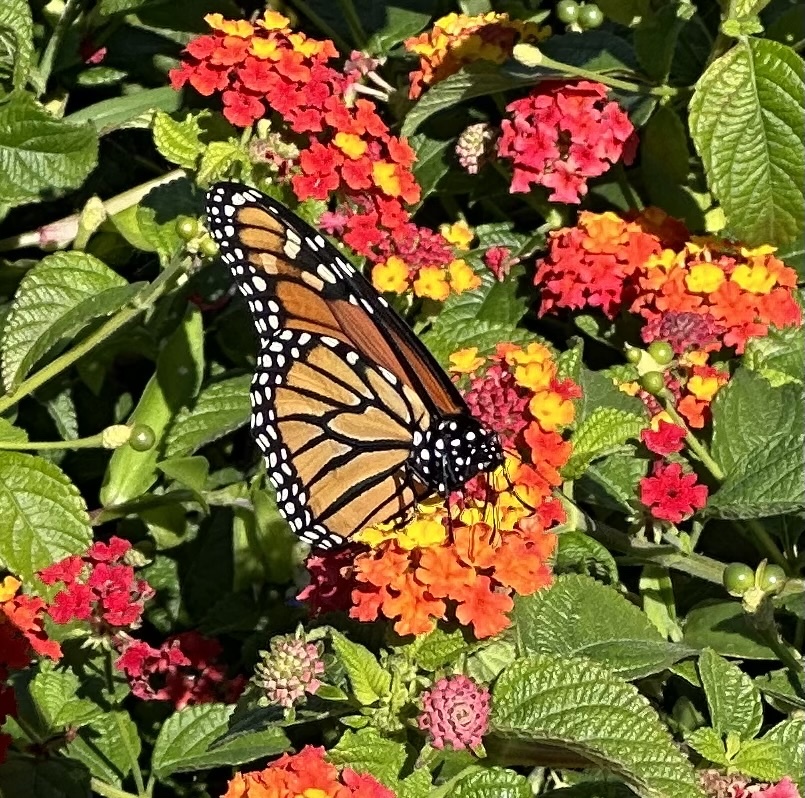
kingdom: Animalia
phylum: Arthropoda
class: Insecta
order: Lepidoptera
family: Nymphalidae
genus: Danaus
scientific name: Danaus plexippus
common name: Monarch
